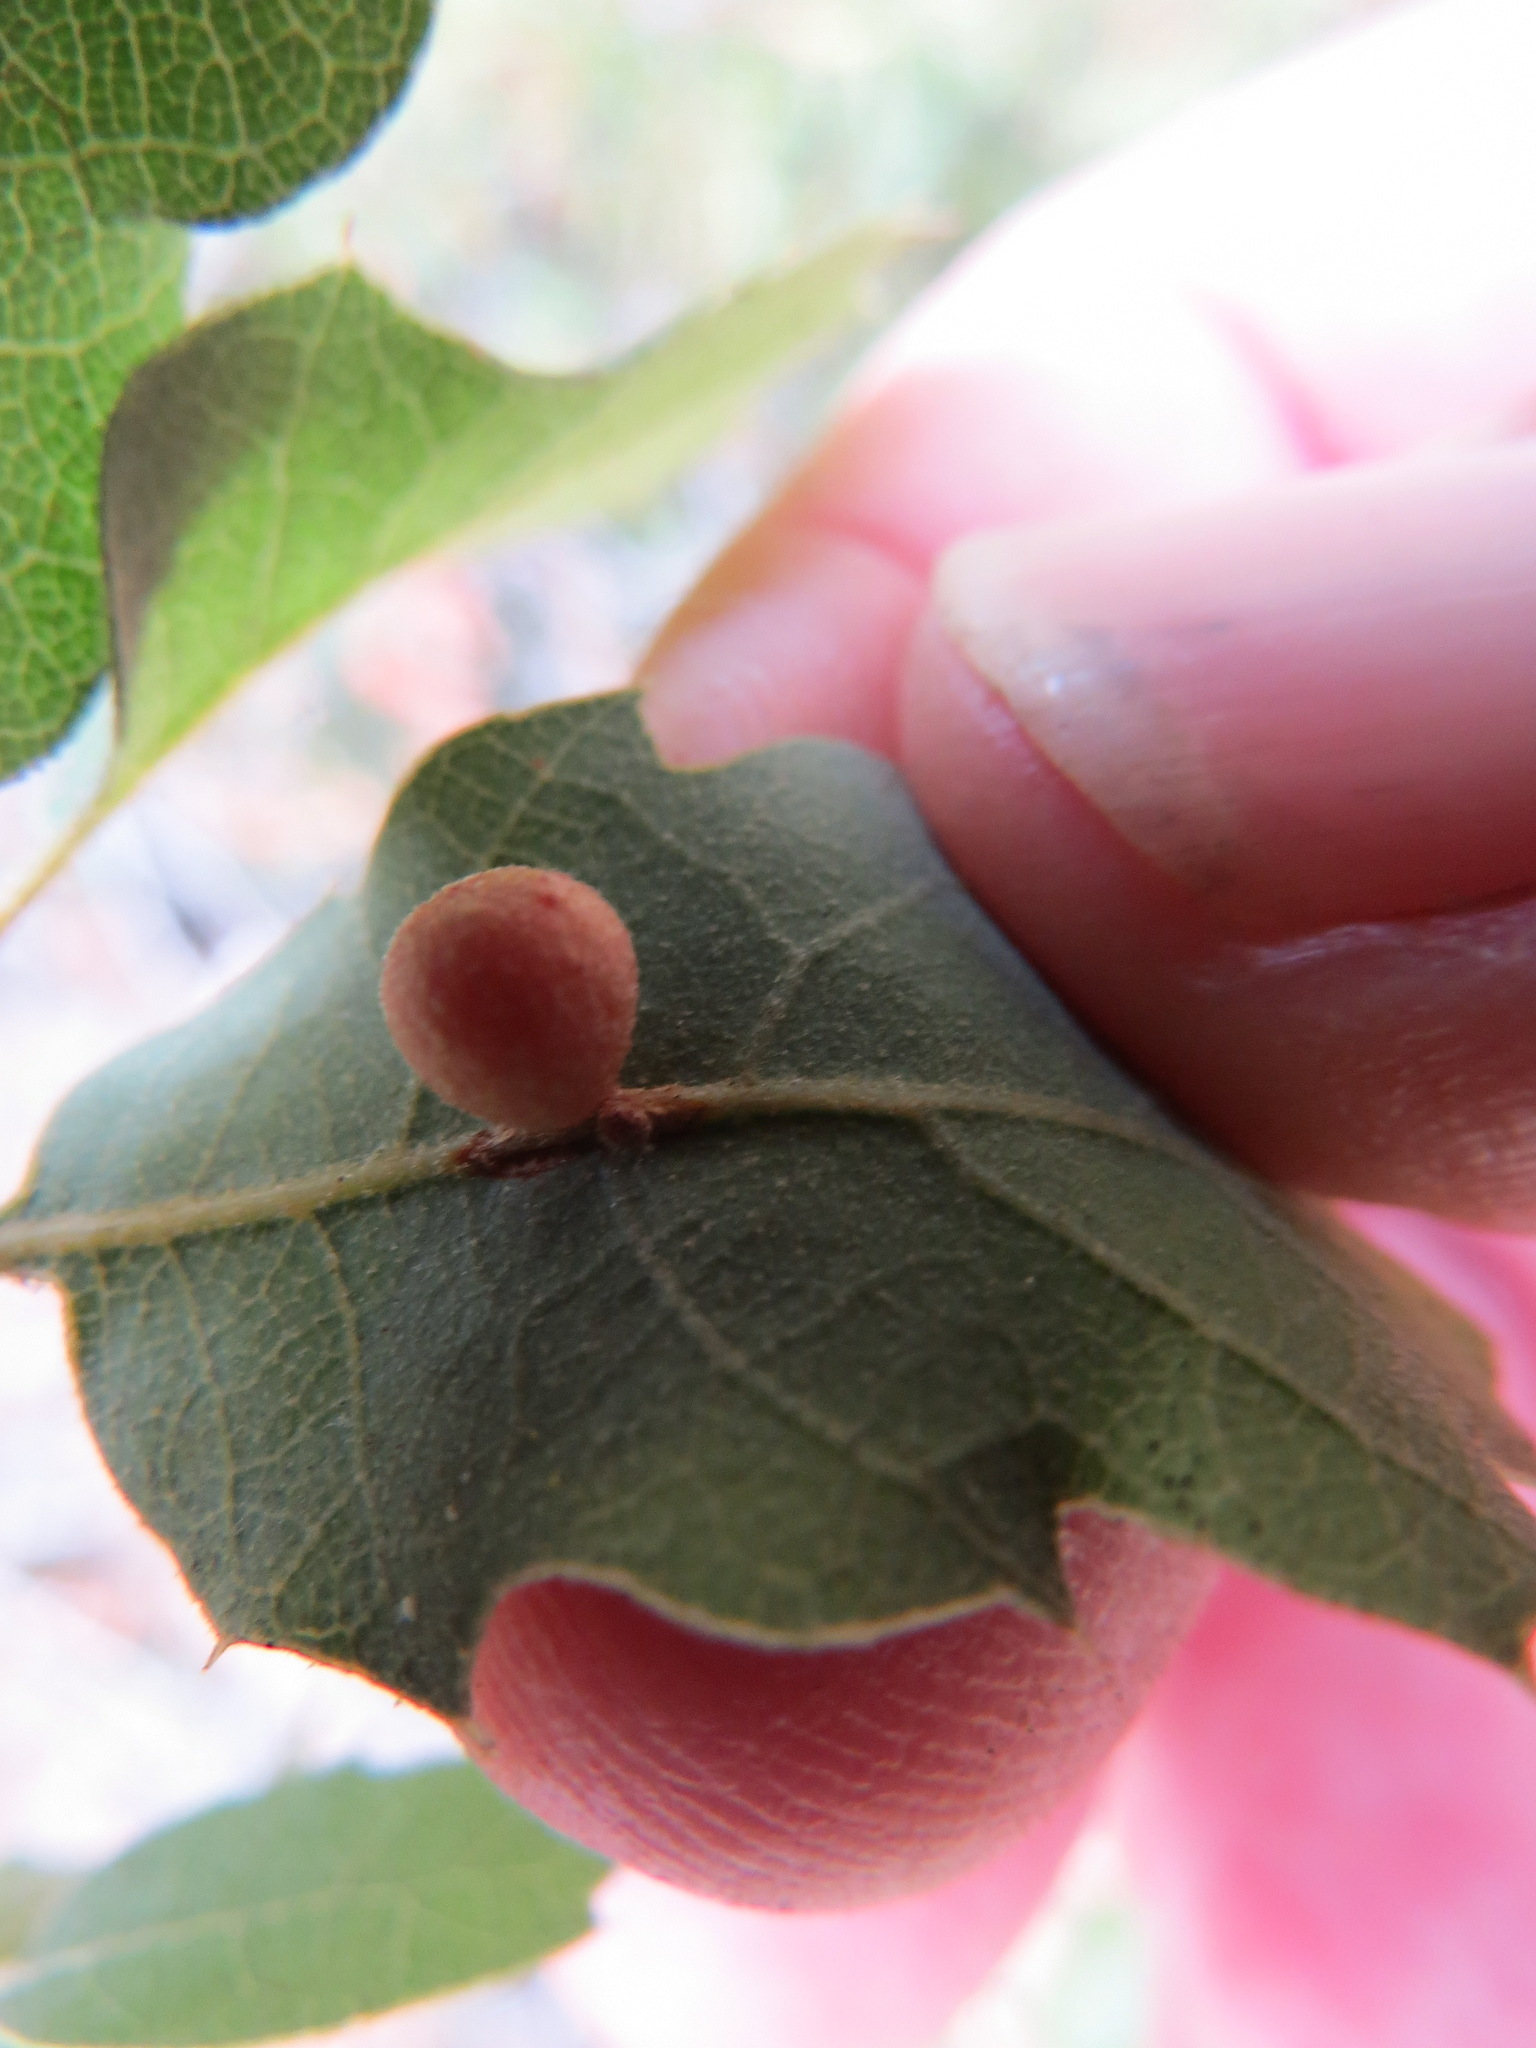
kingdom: Animalia
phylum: Arthropoda
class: Insecta
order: Hymenoptera
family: Cynipidae
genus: Andricus
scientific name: Andricus
